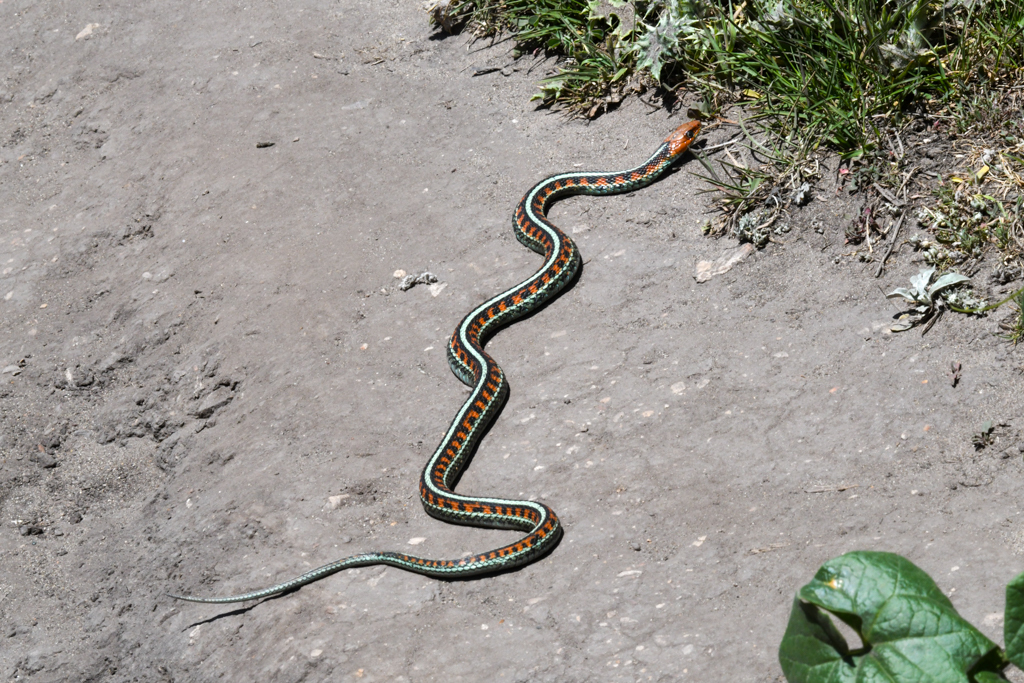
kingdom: Animalia
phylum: Chordata
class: Squamata
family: Colubridae
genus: Thamnophis
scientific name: Thamnophis sirtalis
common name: Common garter snake
